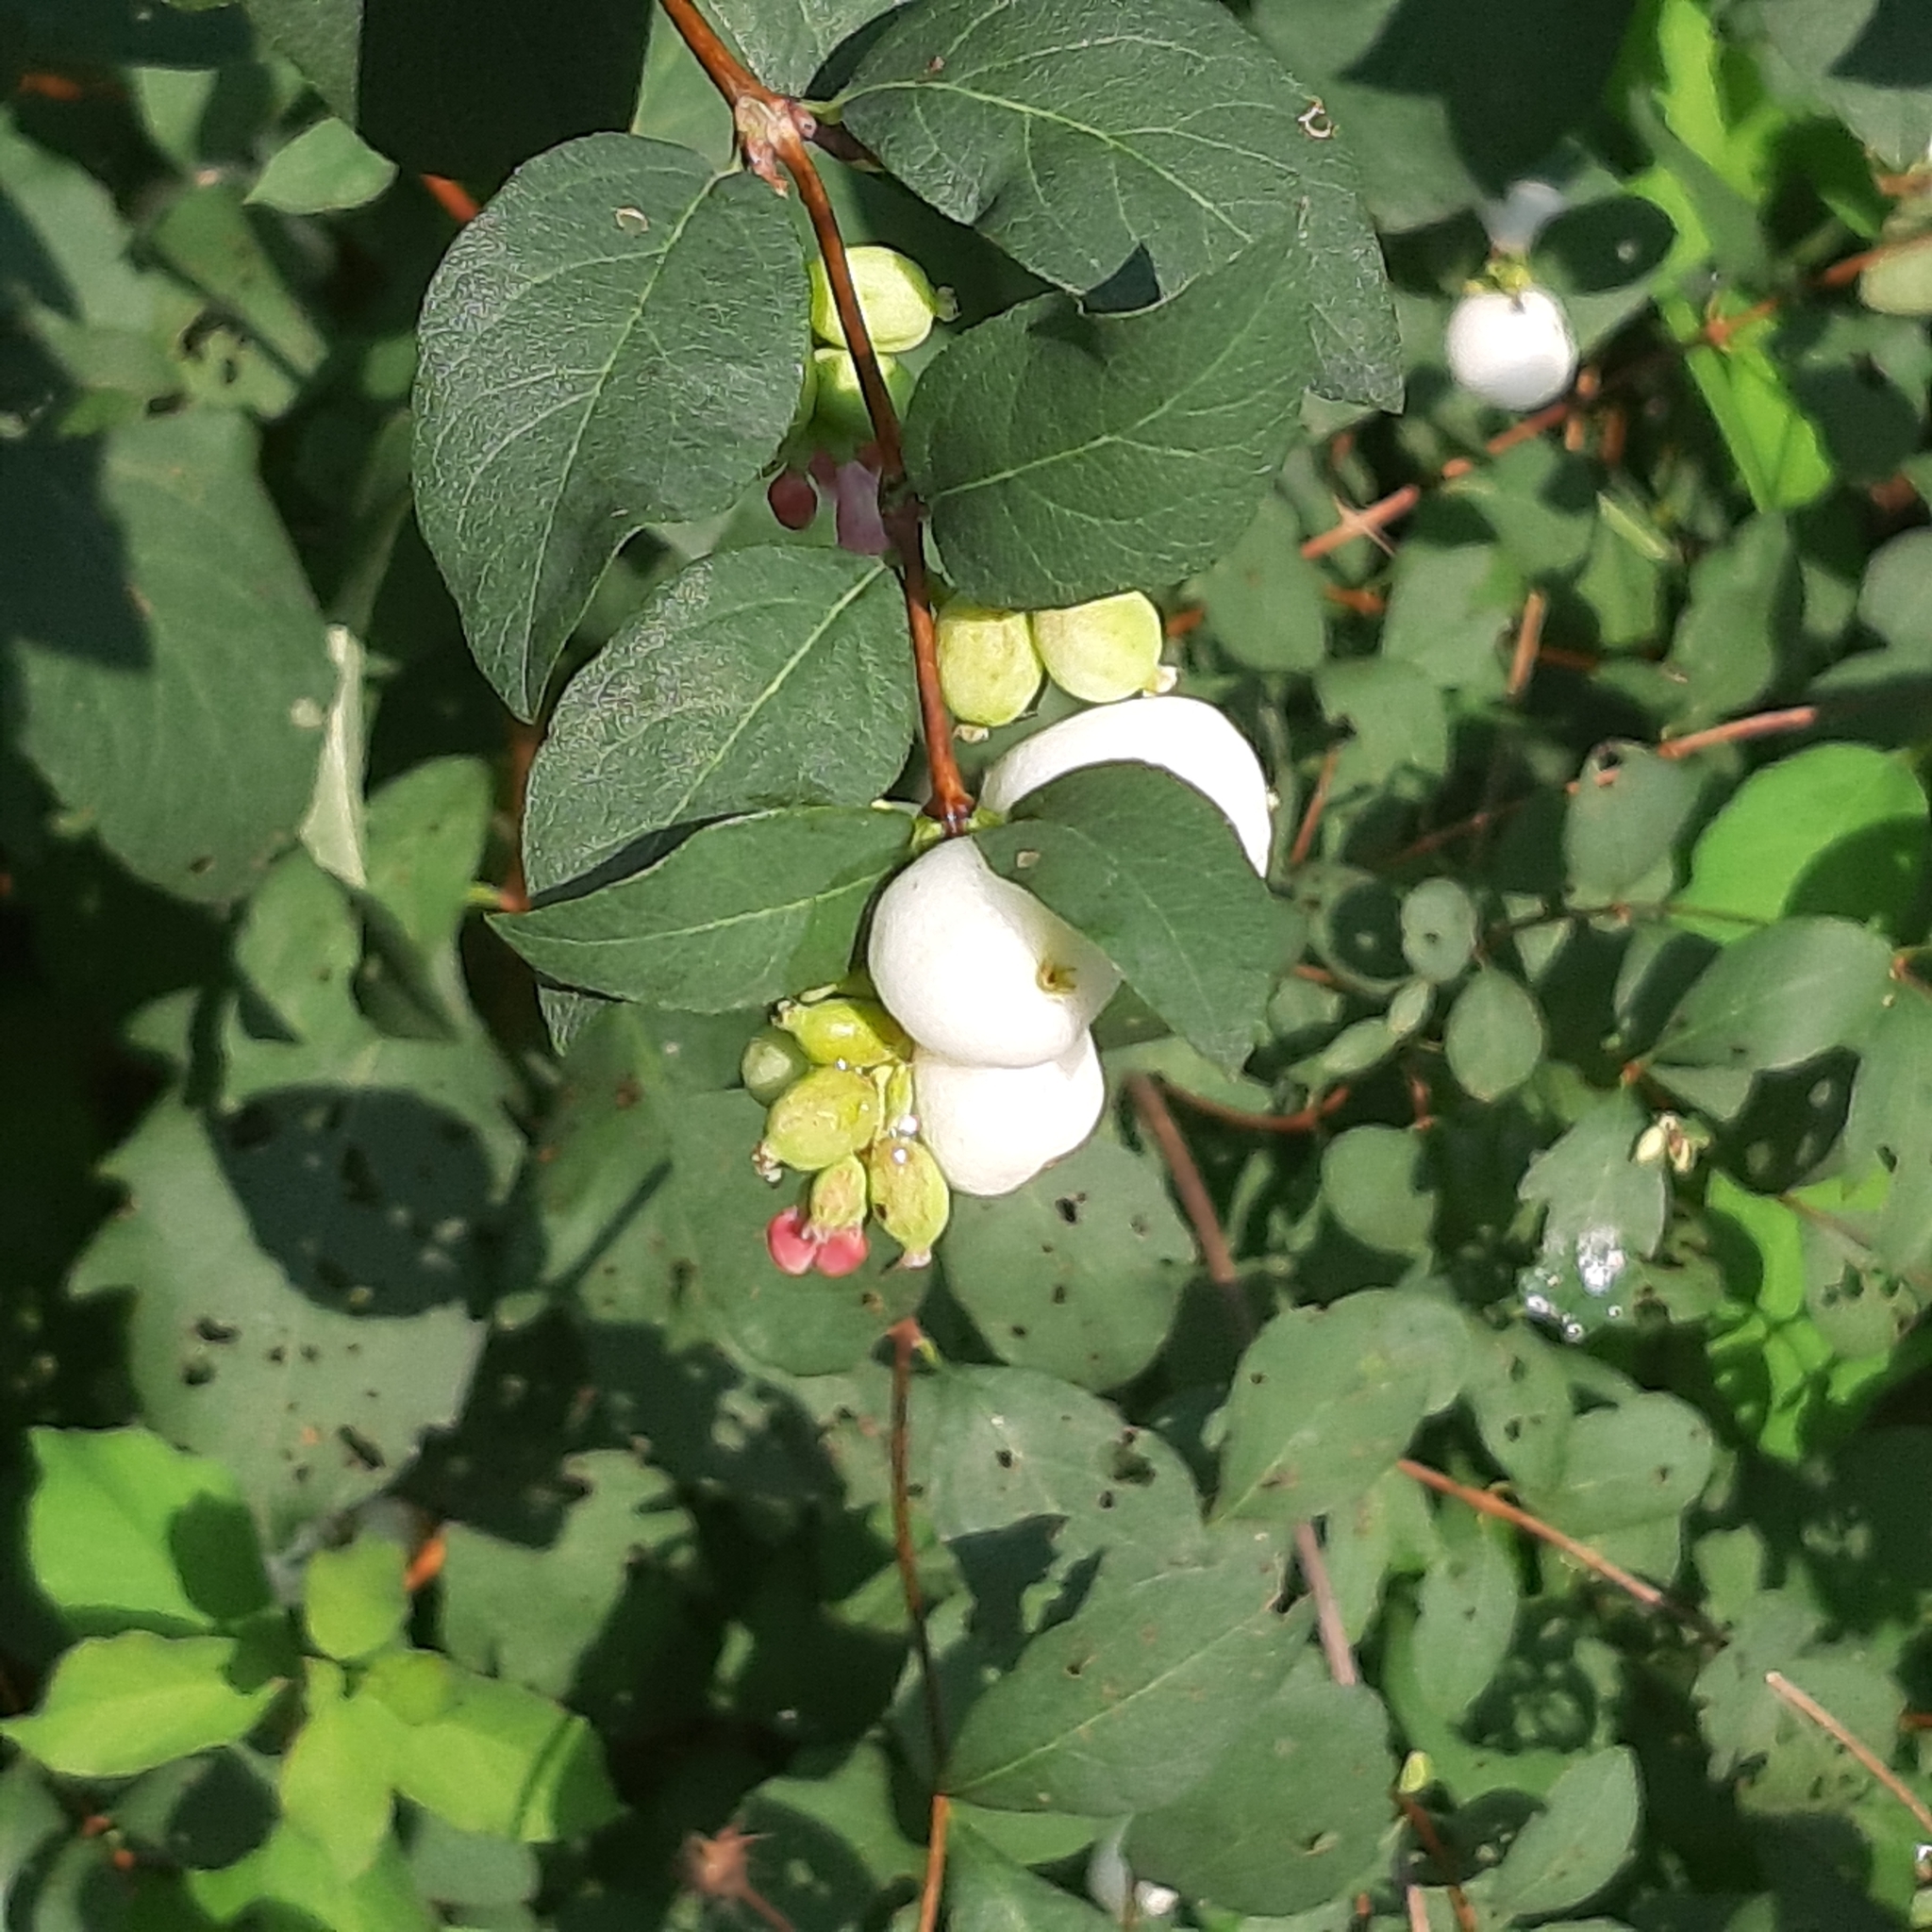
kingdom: Plantae
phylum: Tracheophyta
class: Magnoliopsida
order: Dipsacales
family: Caprifoliaceae
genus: Symphoricarpos
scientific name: Symphoricarpos albus
